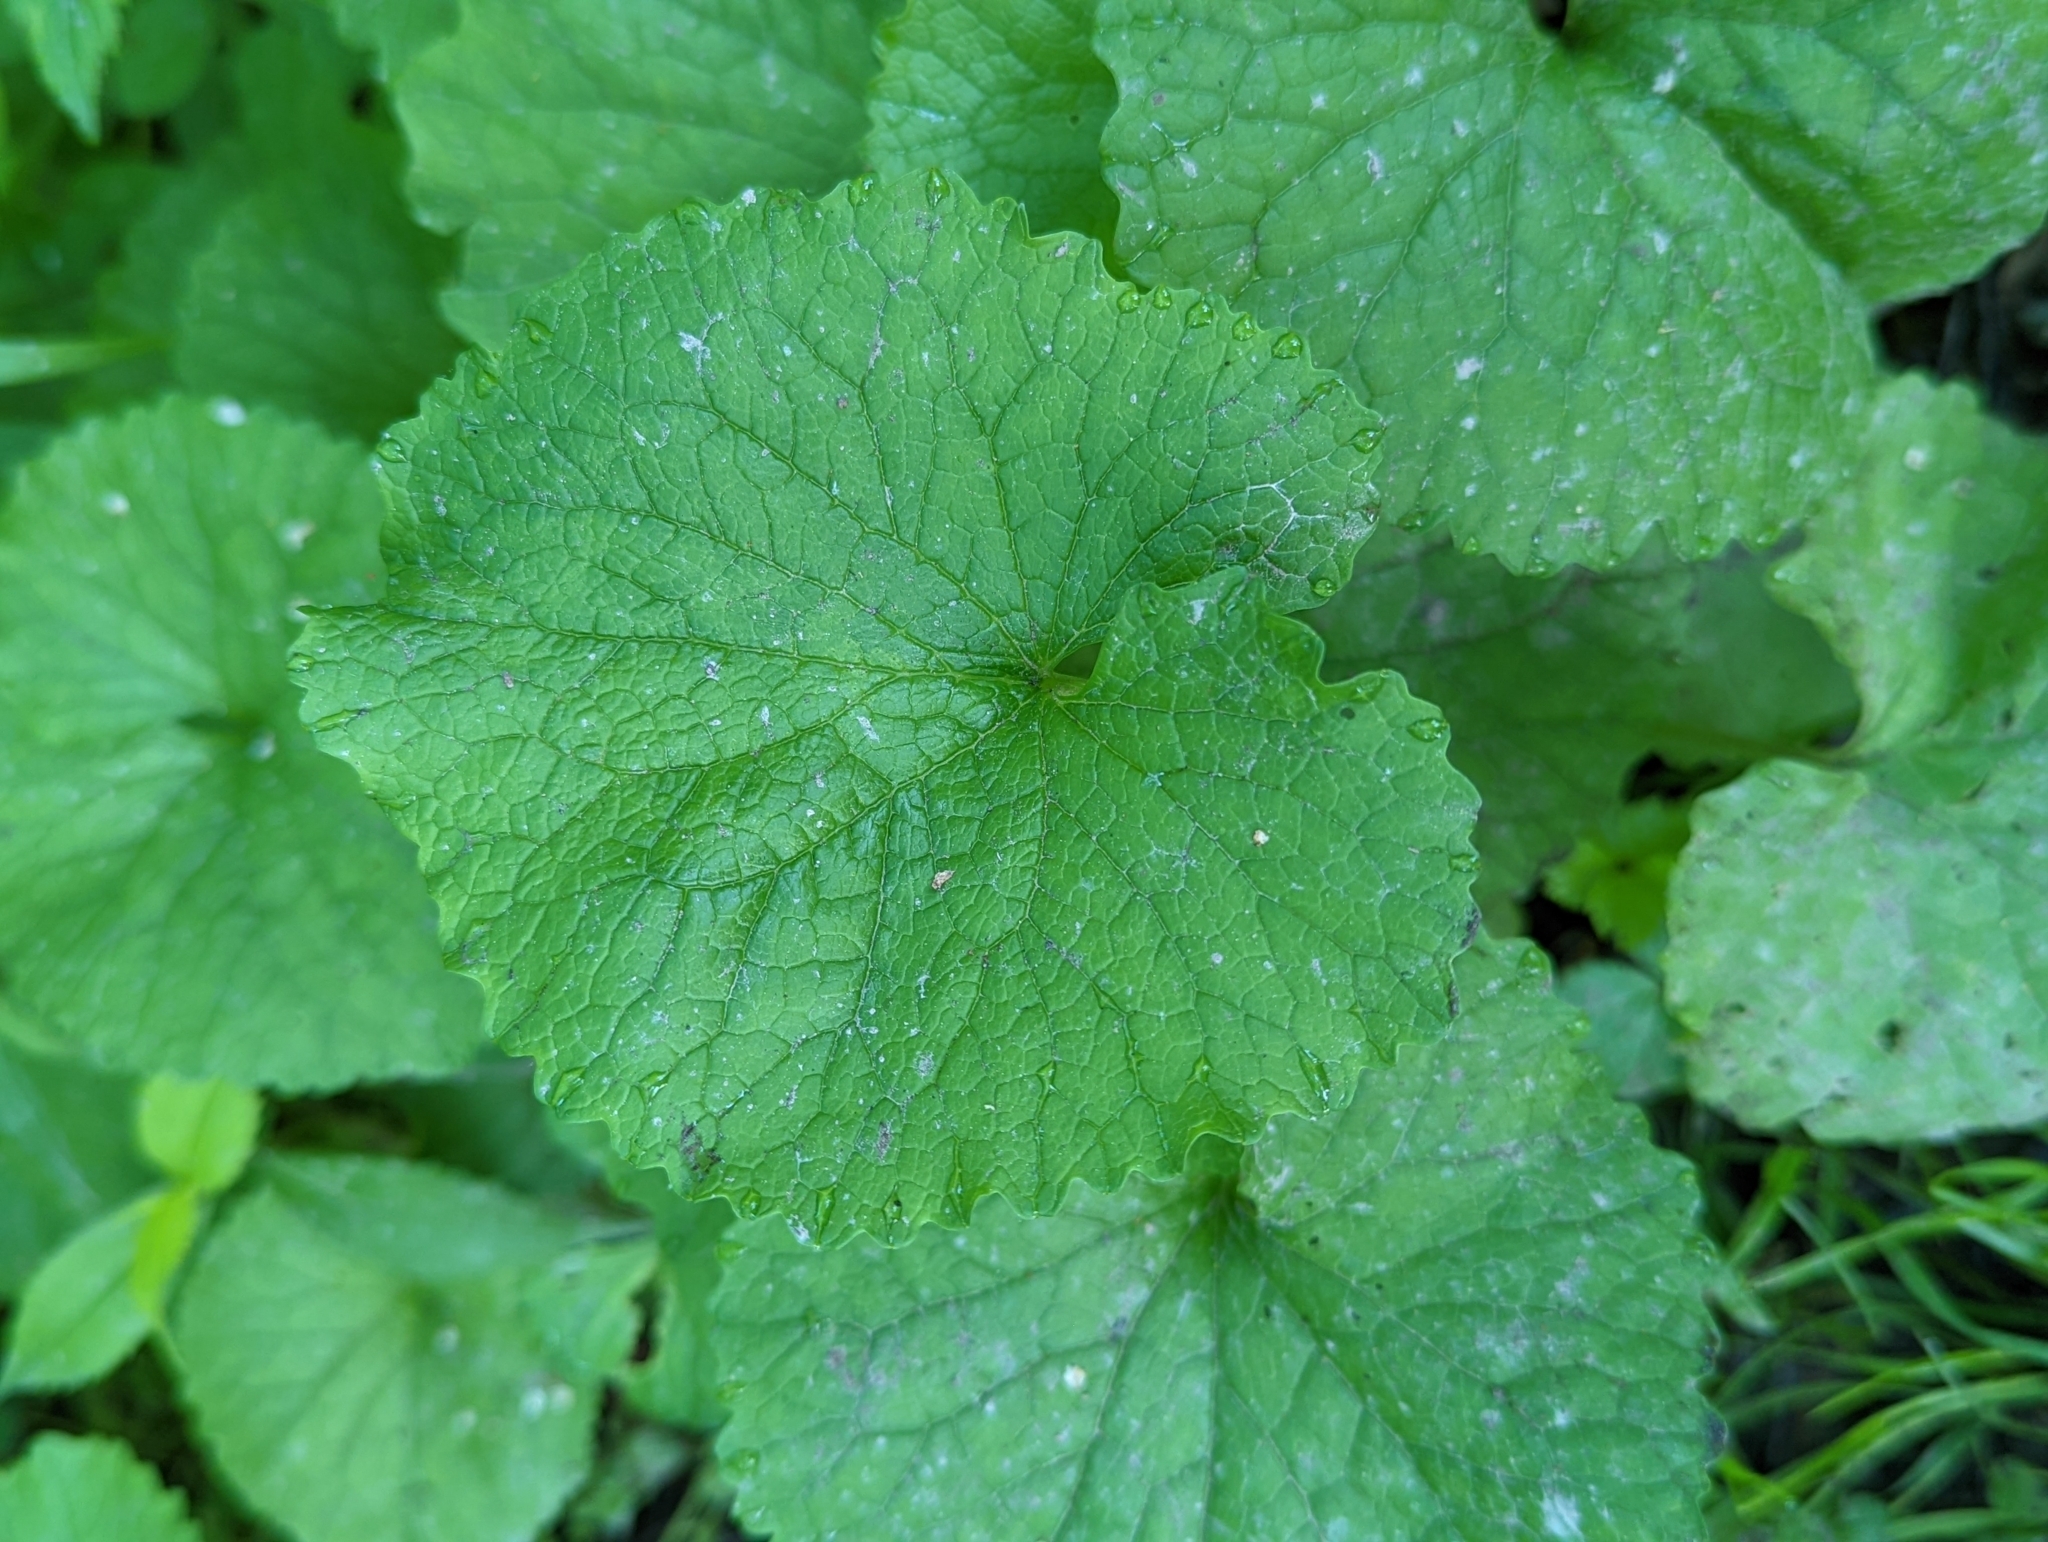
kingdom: Plantae
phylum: Tracheophyta
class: Magnoliopsida
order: Brassicales
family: Brassicaceae
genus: Alliaria
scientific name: Alliaria petiolata
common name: Garlic mustard
